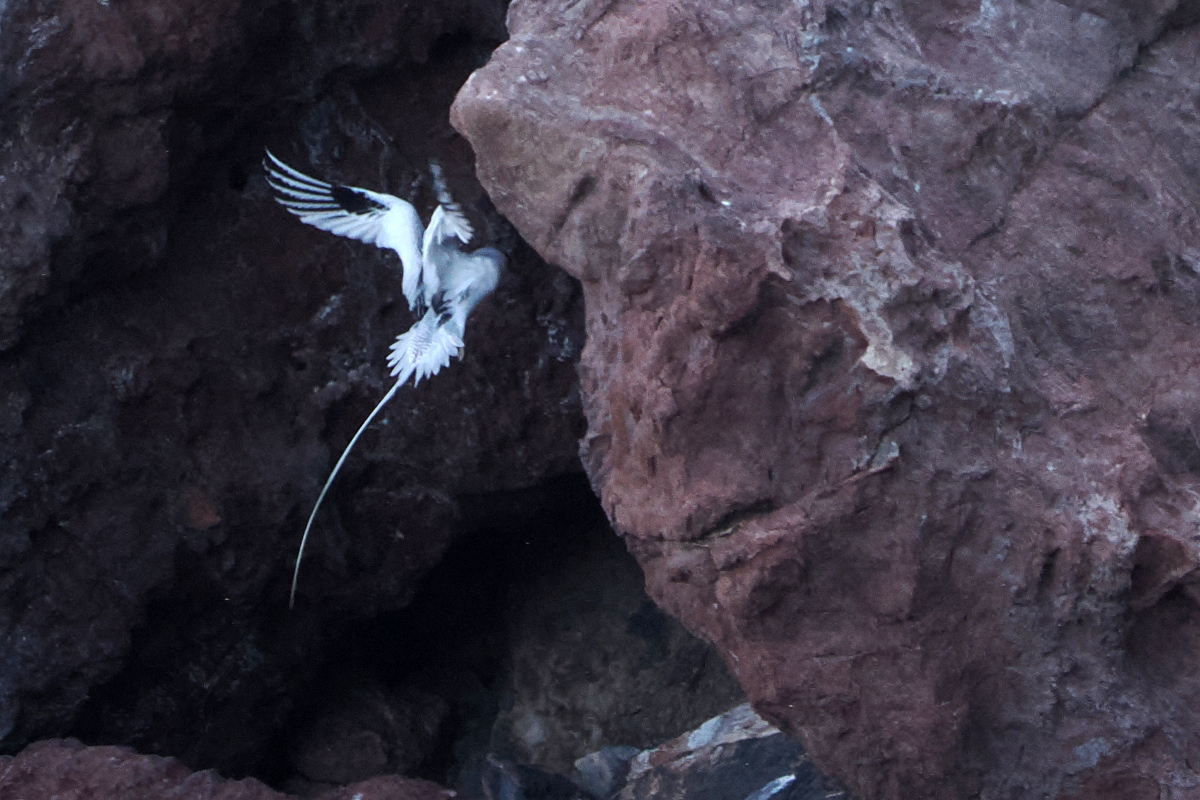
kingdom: Animalia
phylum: Chordata
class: Aves
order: Phaethontiformes
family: Phaethontidae
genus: Phaethon
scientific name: Phaethon aethereus
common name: Red-billed tropicbird
